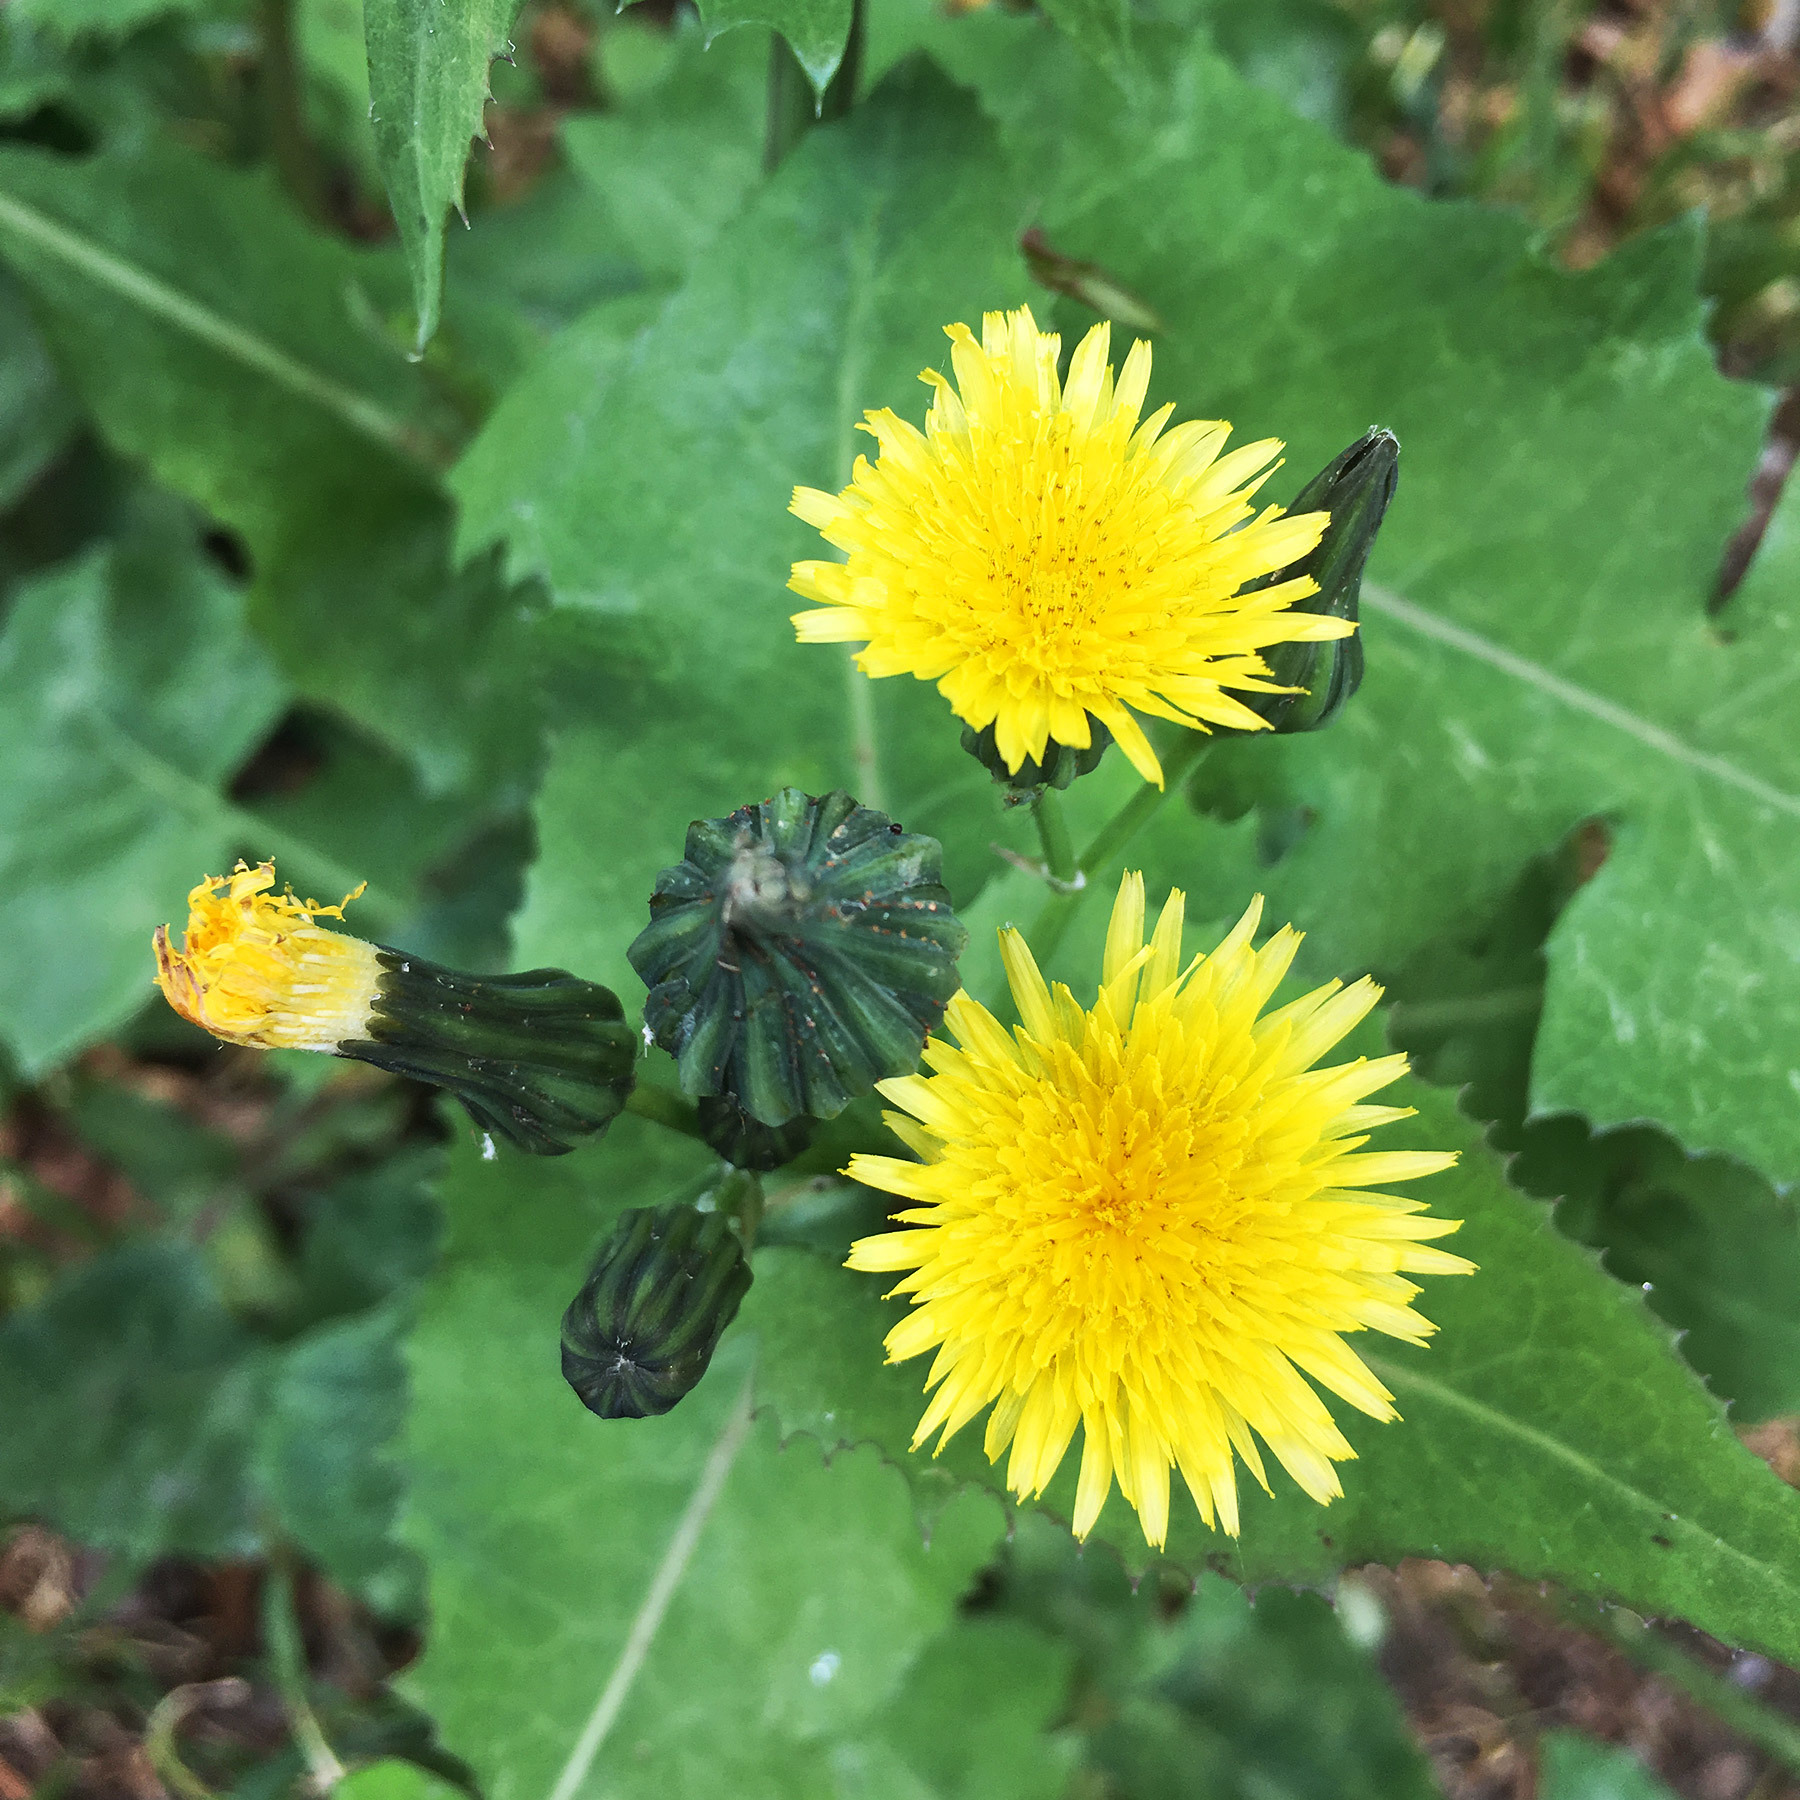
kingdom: Plantae
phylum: Tracheophyta
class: Magnoliopsida
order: Asterales
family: Asteraceae
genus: Sonchus
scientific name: Sonchus oleraceus
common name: Common sowthistle
